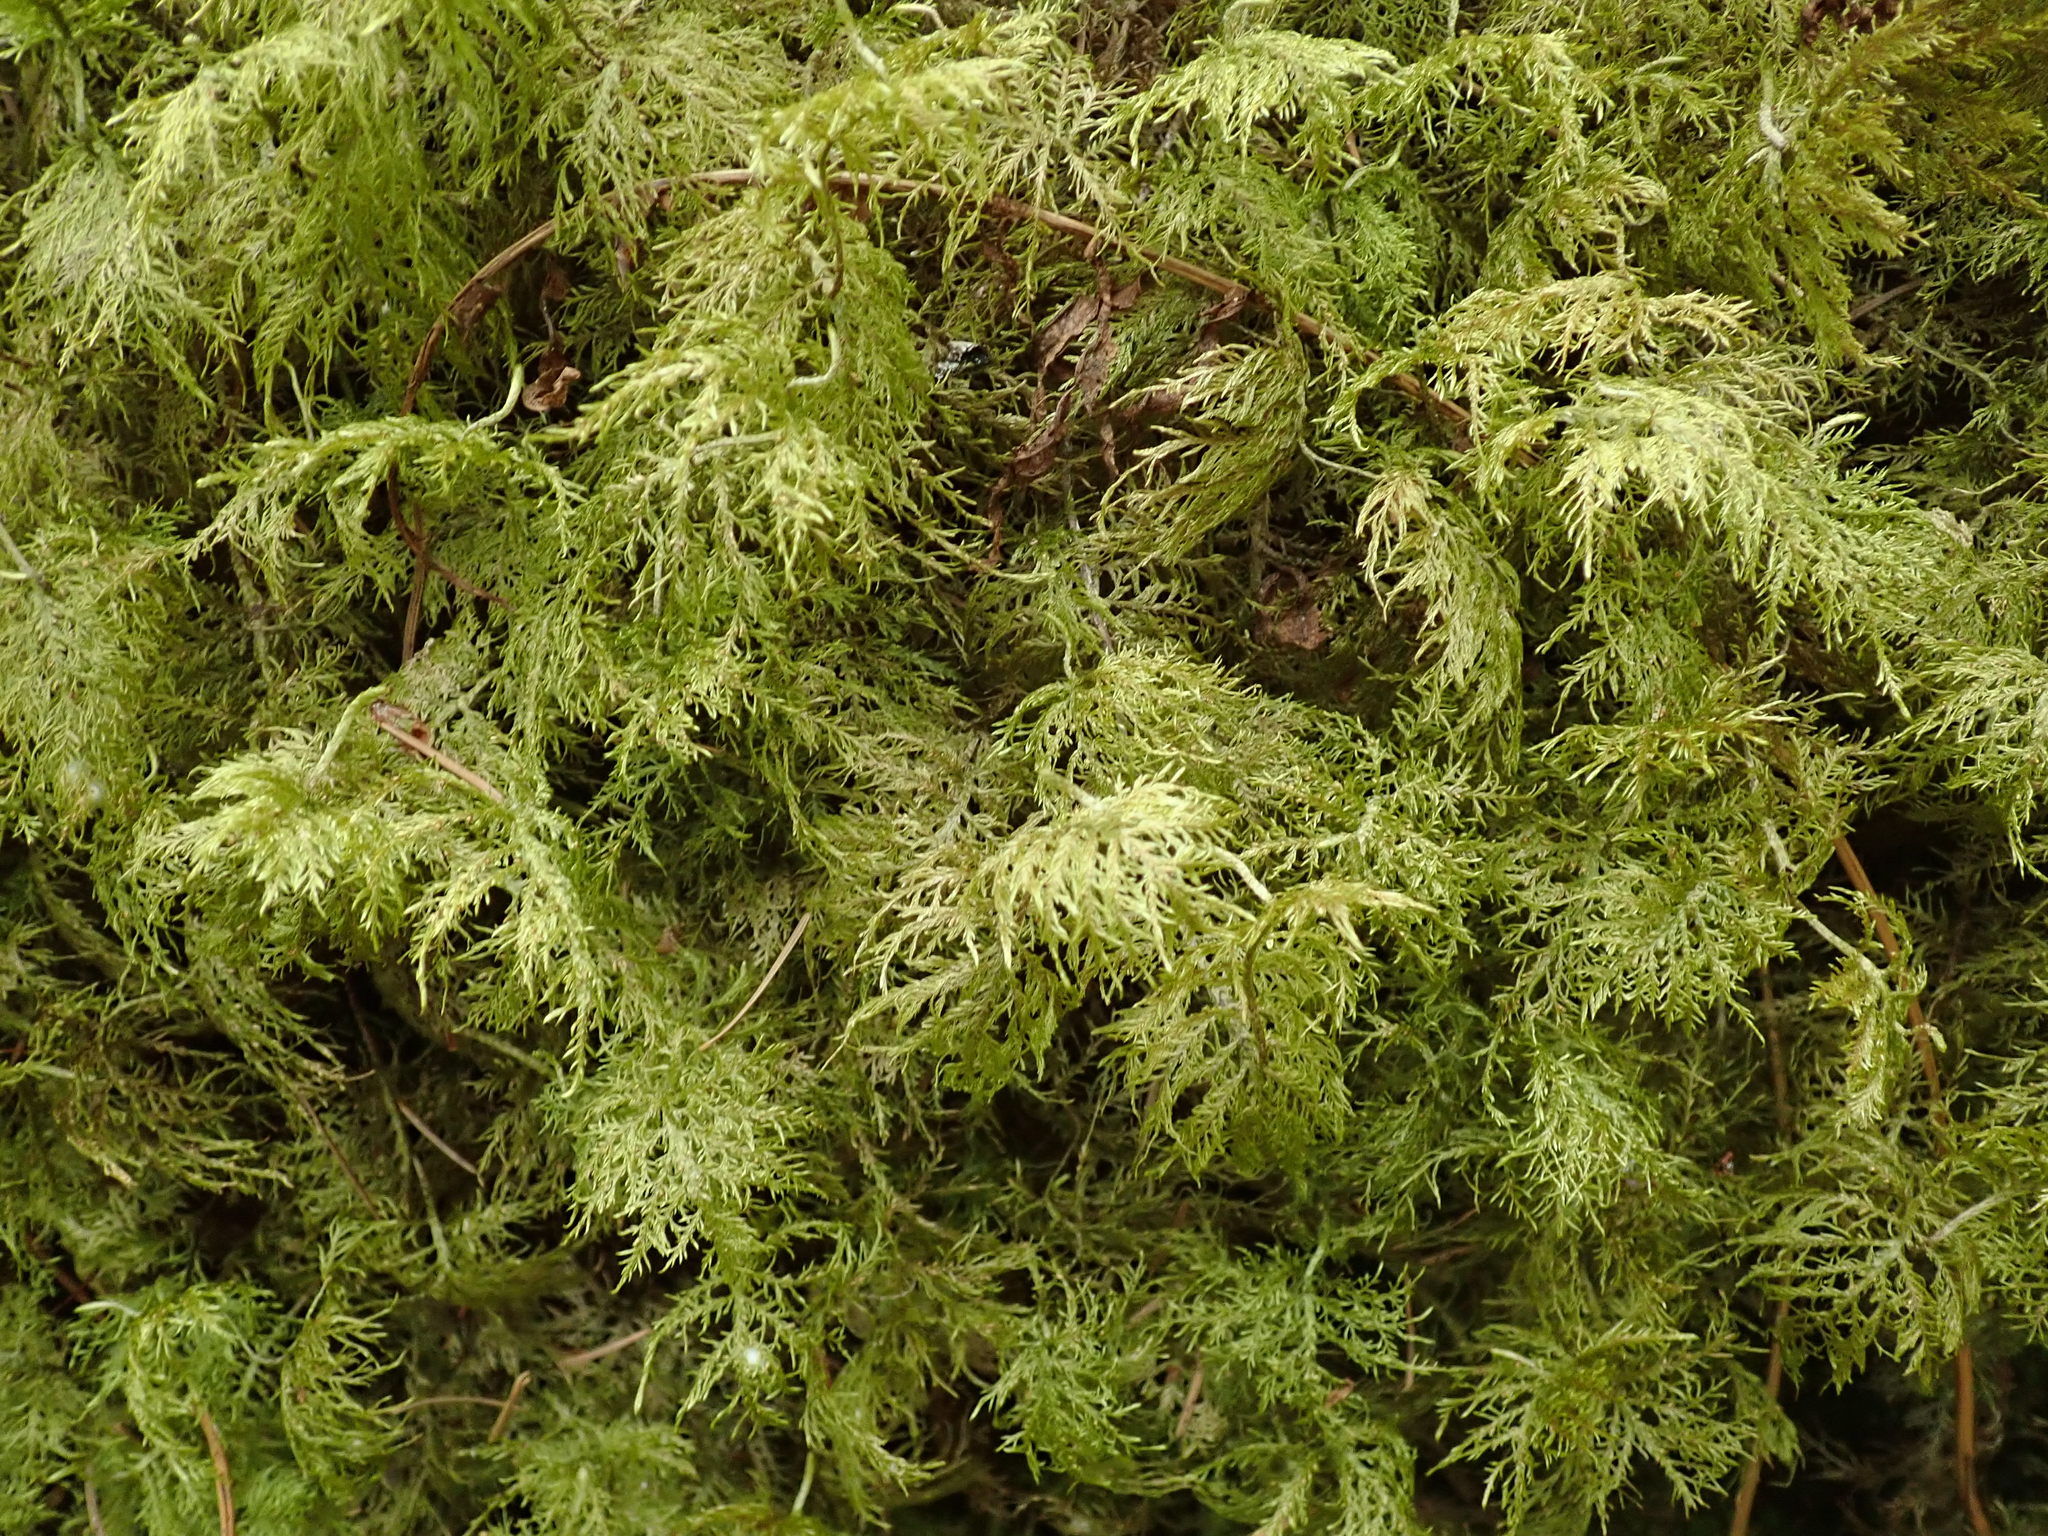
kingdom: Plantae
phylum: Bryophyta
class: Bryopsida
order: Hypnales
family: Hylocomiaceae
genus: Hylocomium
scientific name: Hylocomium splendens
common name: Stairstep moss
